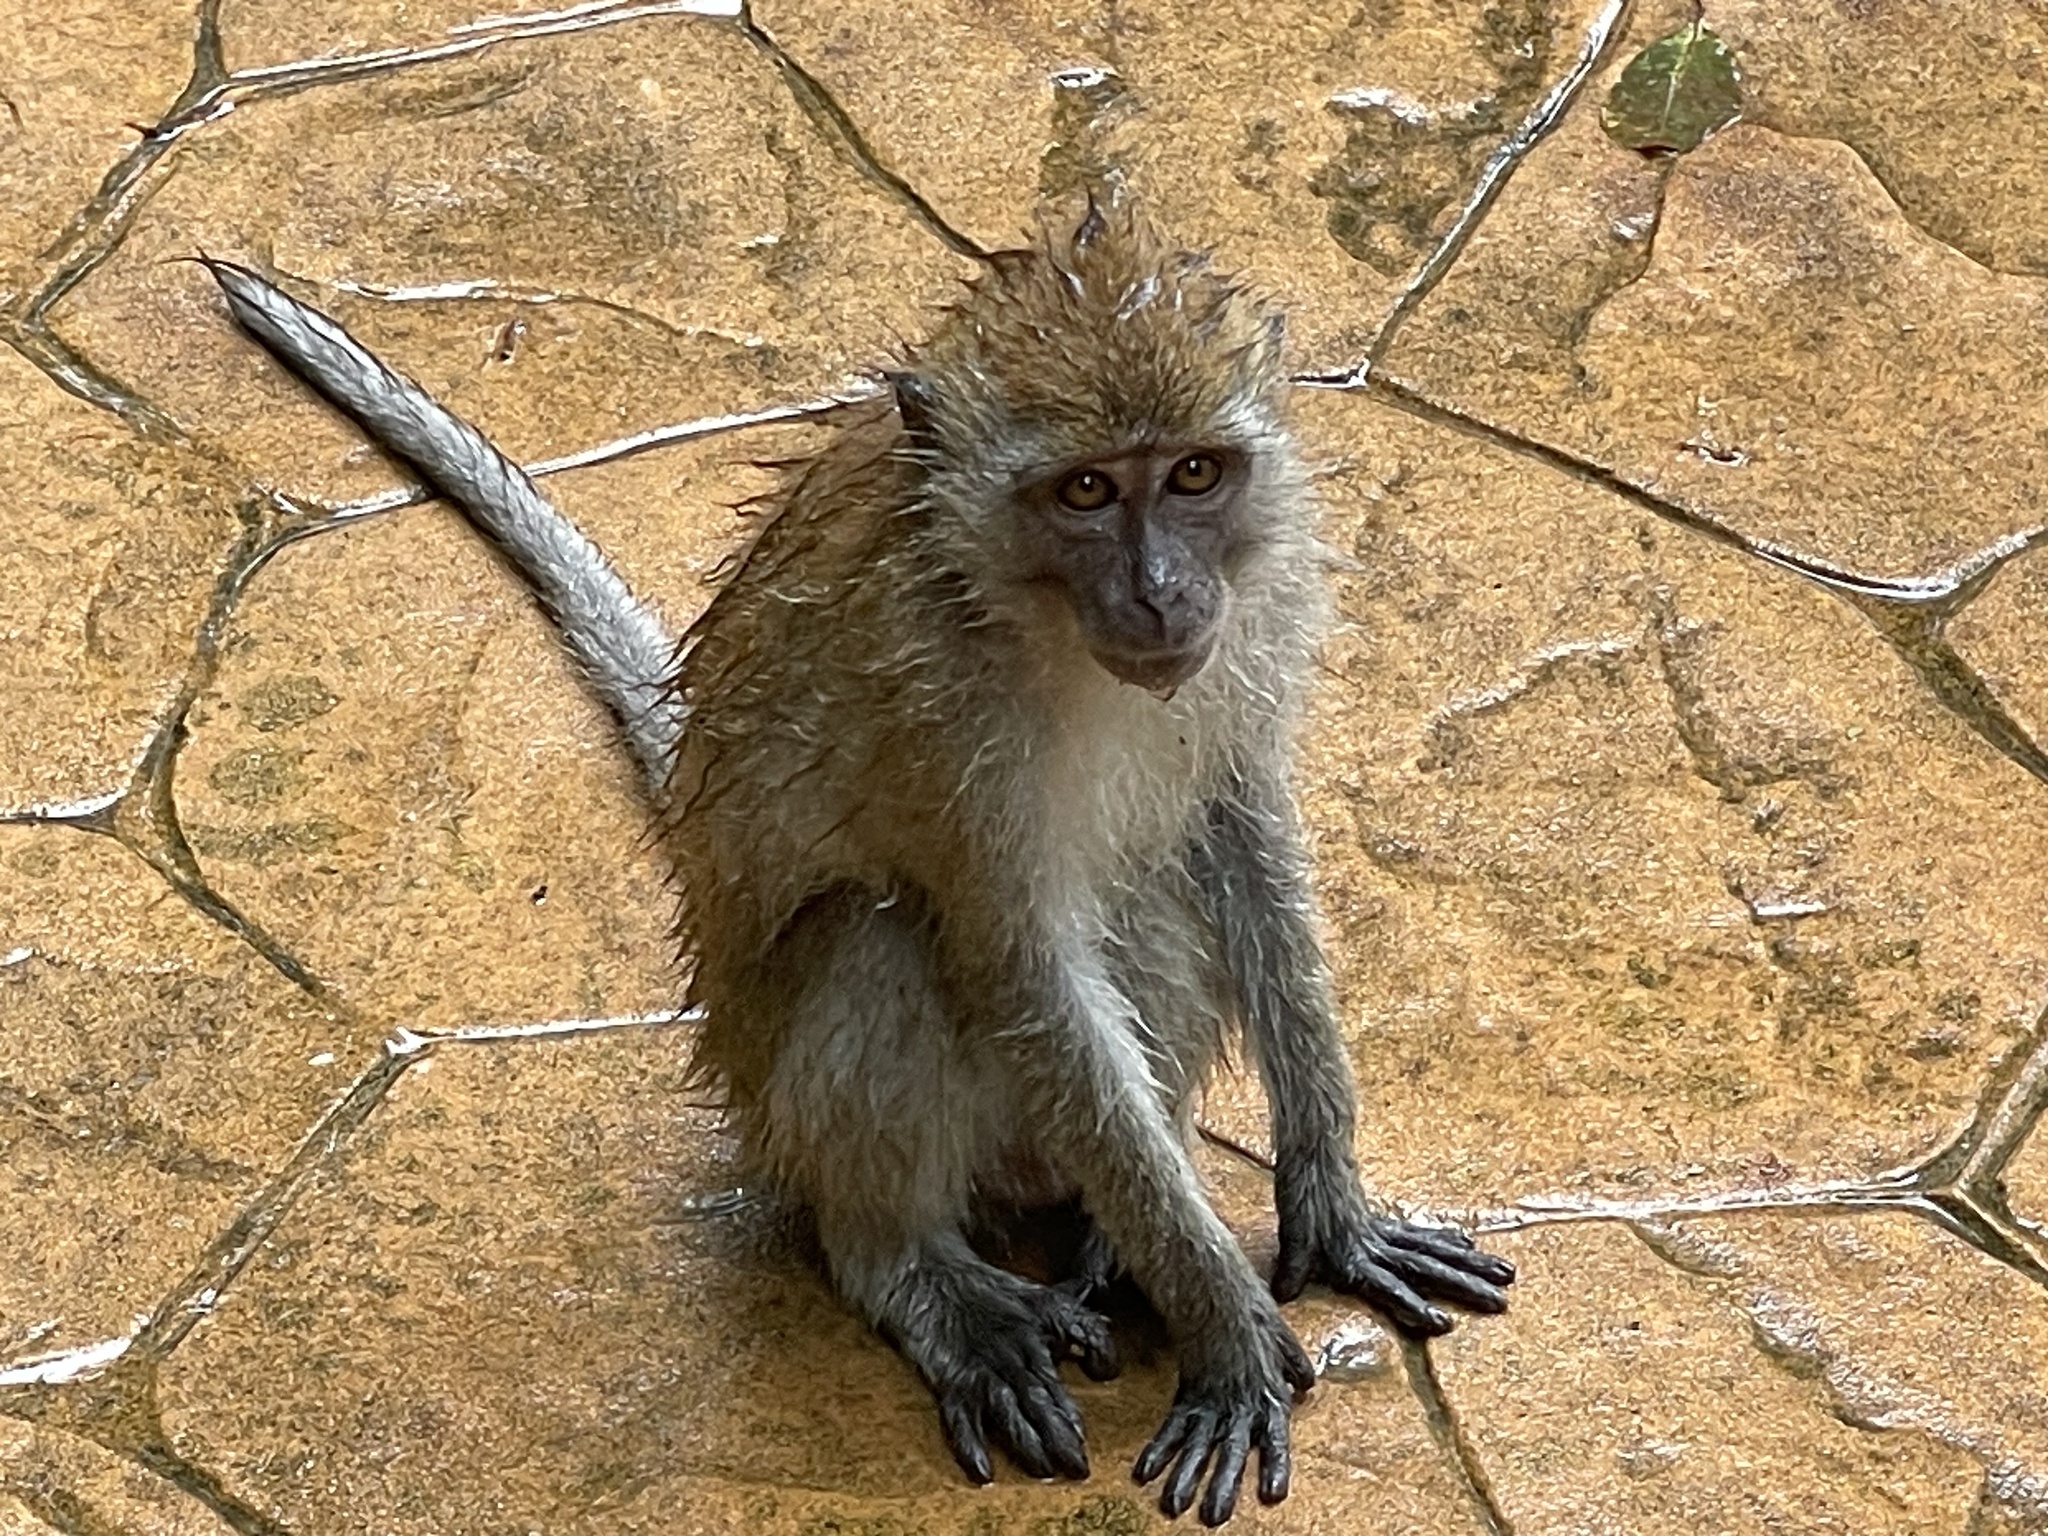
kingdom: Animalia
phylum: Chordata
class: Mammalia
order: Primates
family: Cercopithecidae
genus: Macaca
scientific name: Macaca fascicularis
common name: Crab-eating macaque
